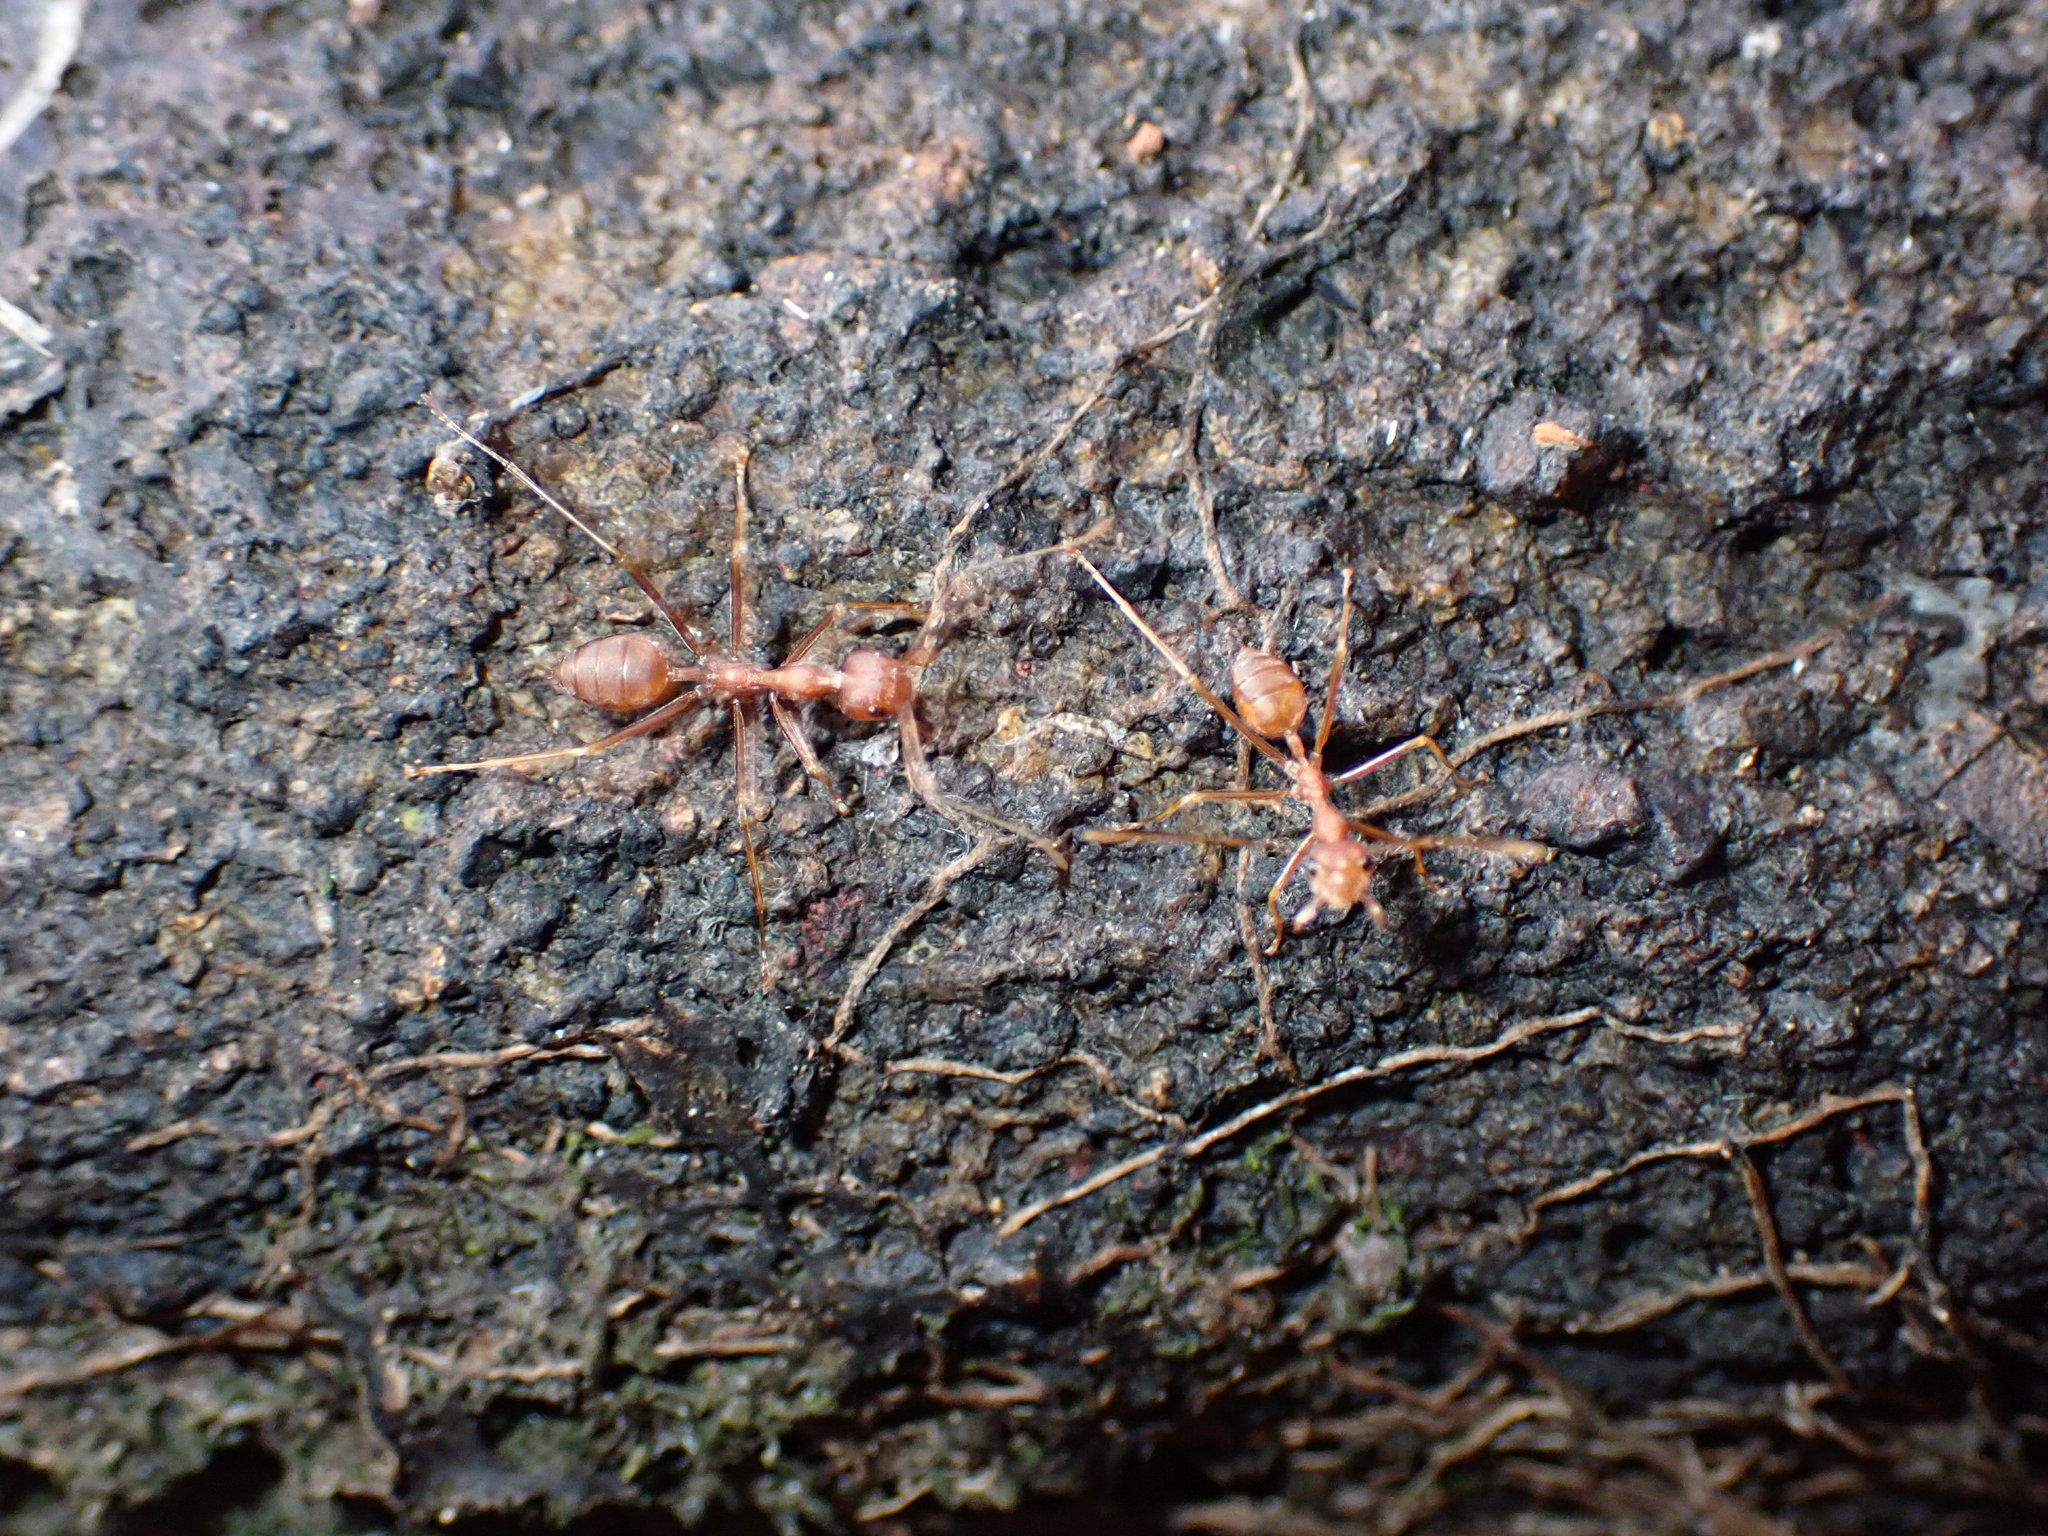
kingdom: Animalia
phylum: Arthropoda
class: Insecta
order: Hymenoptera
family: Formicidae
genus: Oecophylla
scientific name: Oecophylla smaragdina
